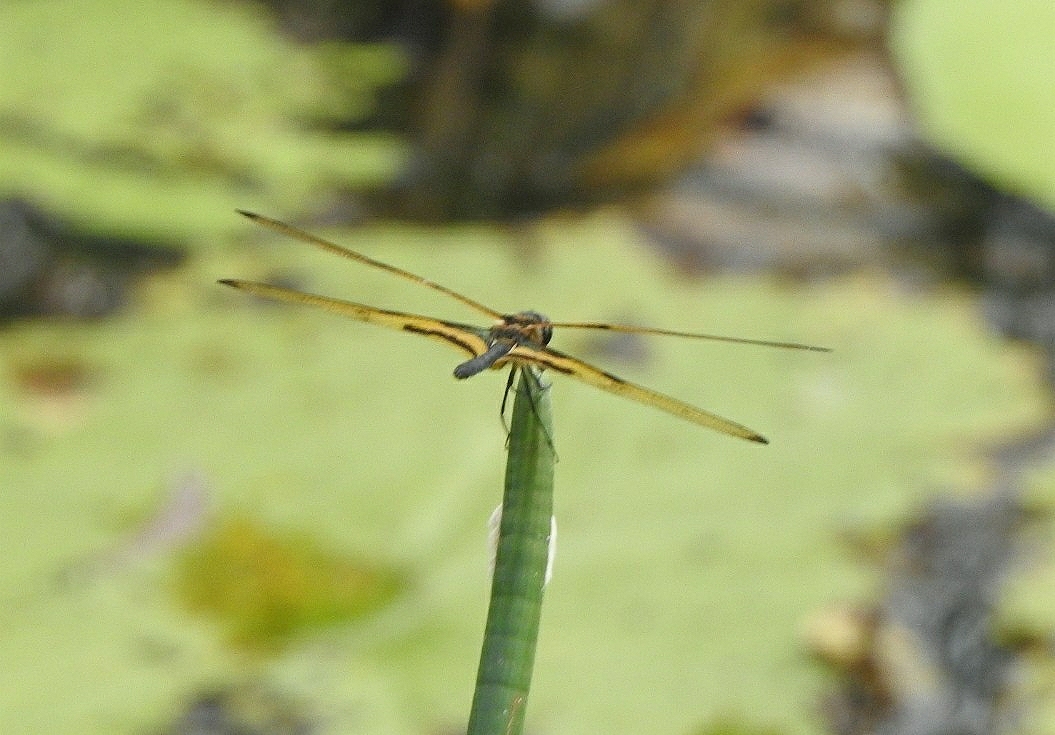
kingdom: Animalia
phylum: Arthropoda
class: Insecta
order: Odonata
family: Libellulidae
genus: Rhyothemis
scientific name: Rhyothemis variegata
